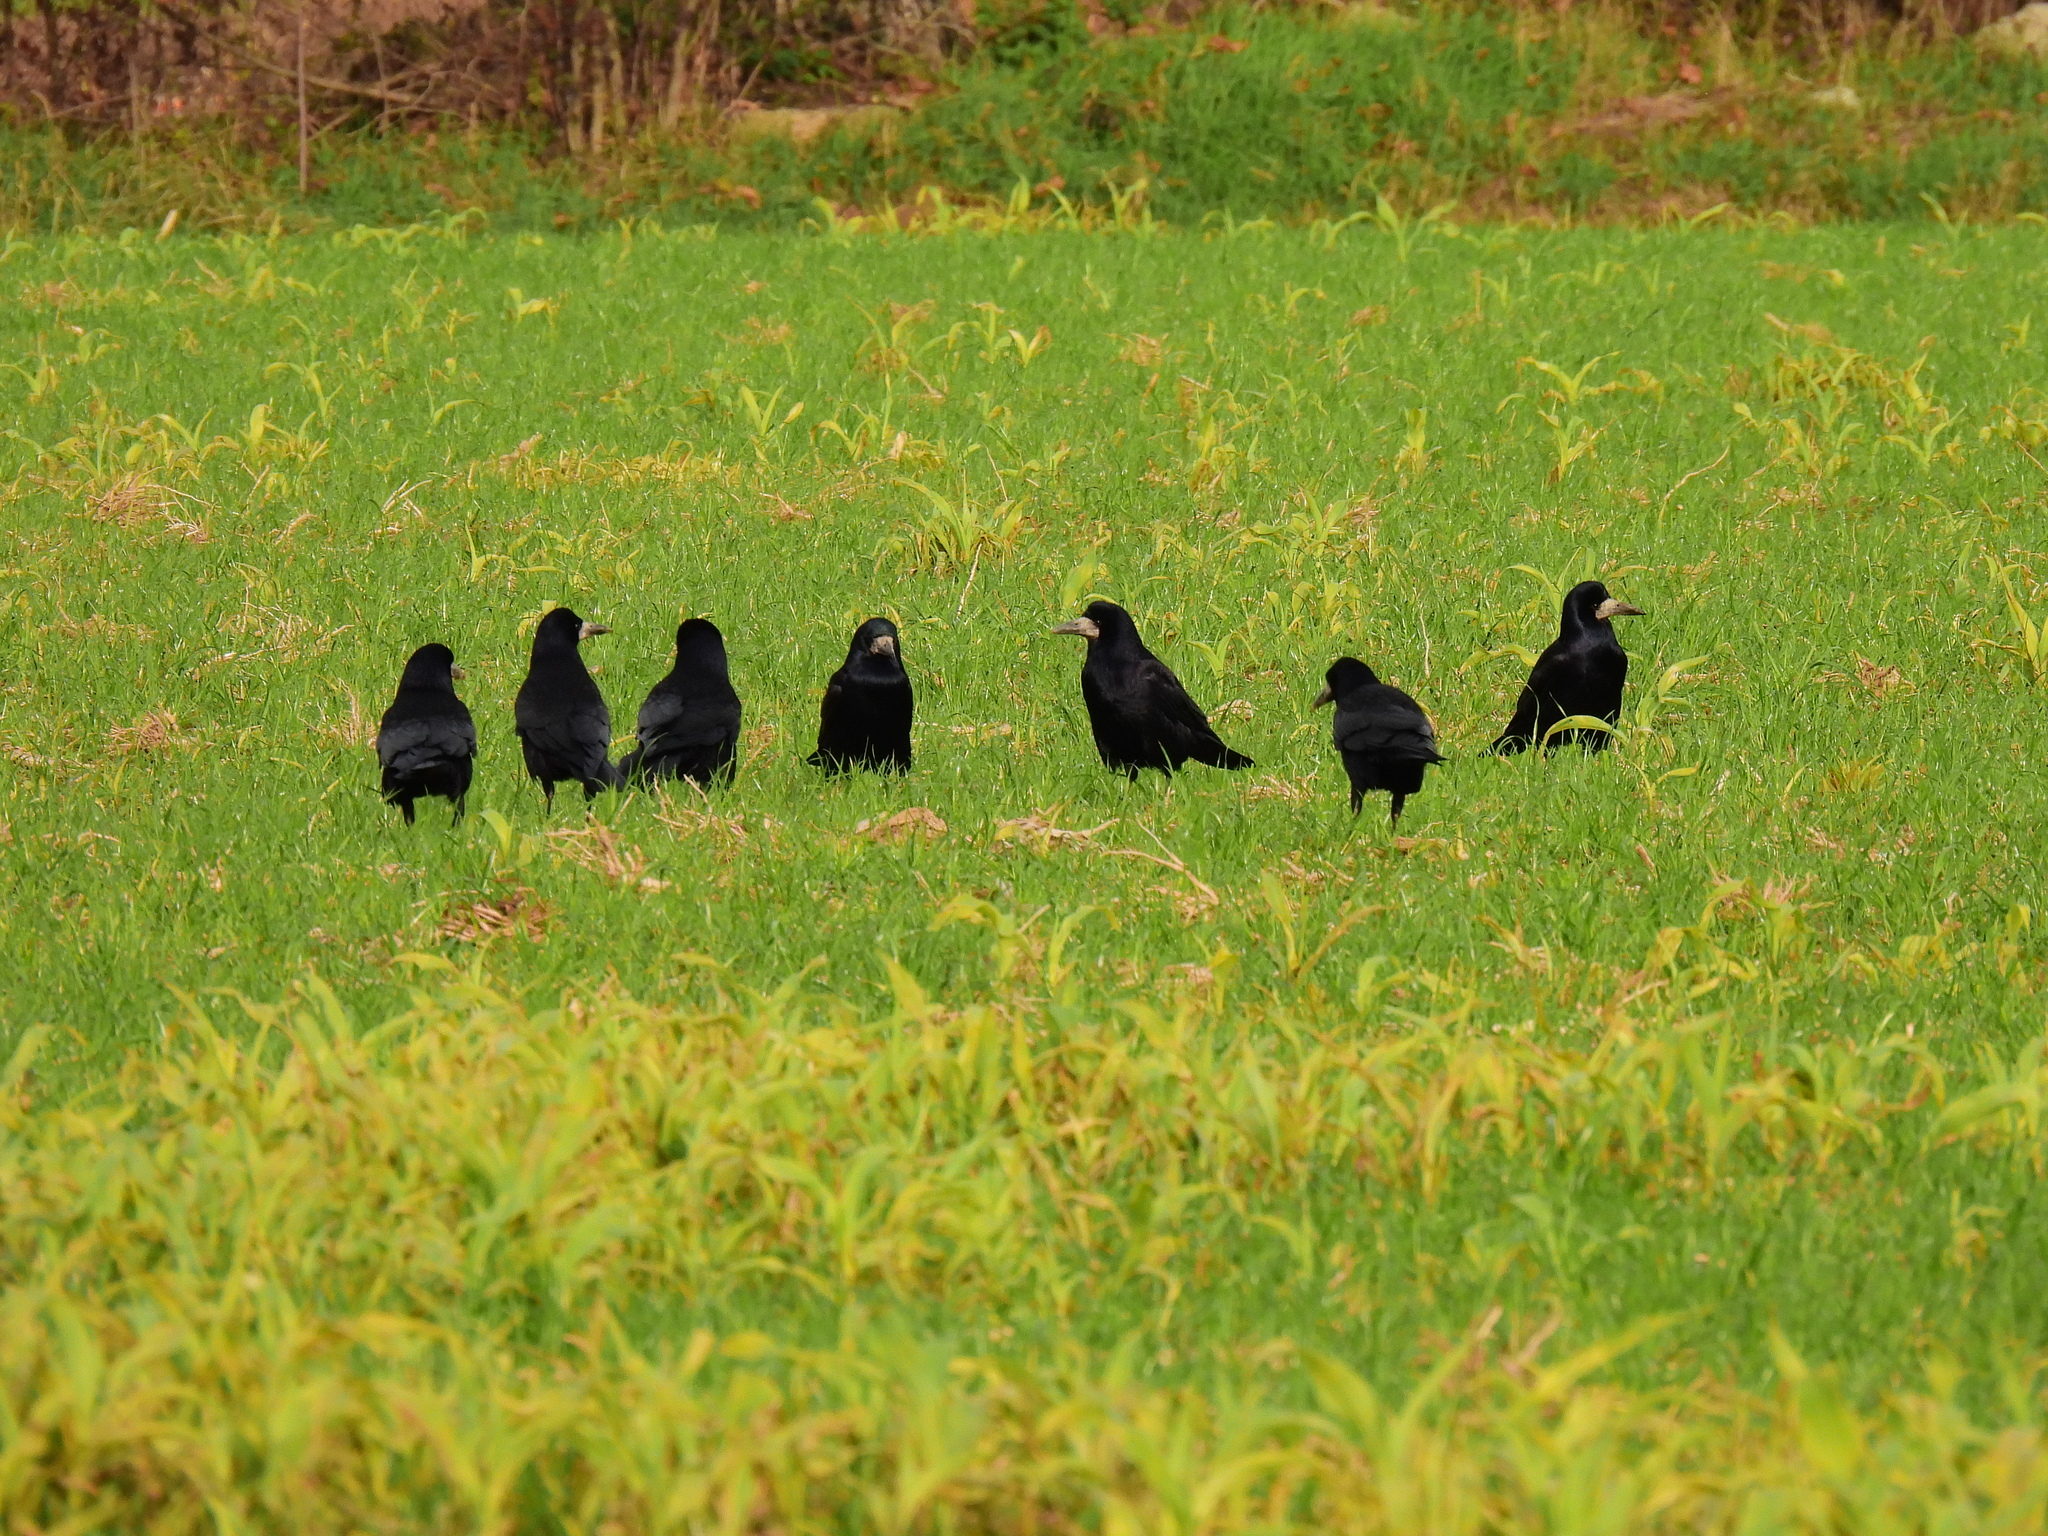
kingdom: Animalia
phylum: Chordata
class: Aves
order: Passeriformes
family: Corvidae
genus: Corvus
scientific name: Corvus frugilegus
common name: Rook
